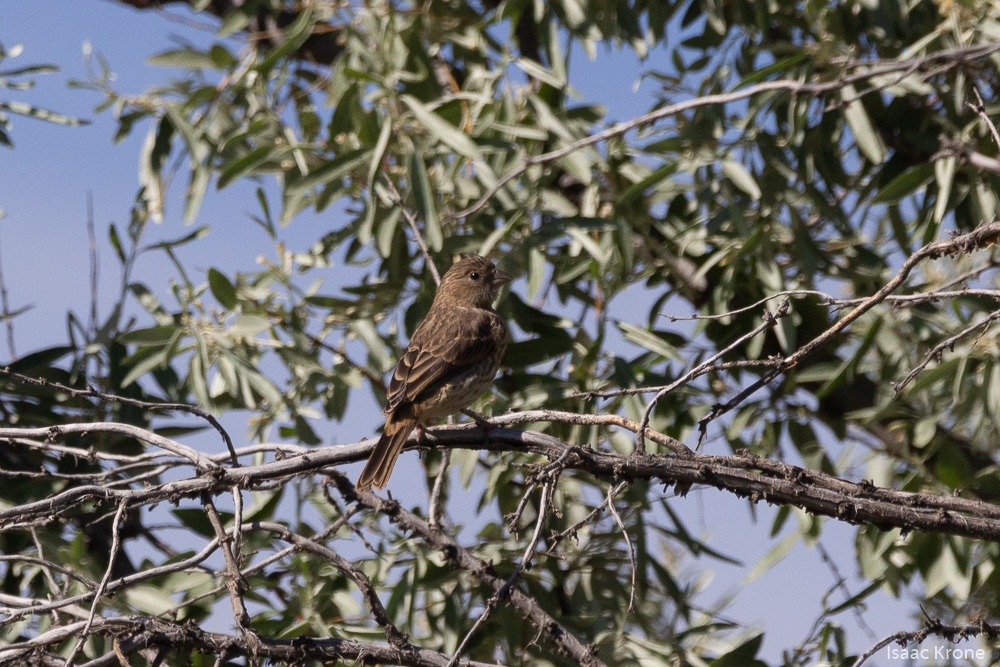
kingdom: Animalia
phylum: Chordata
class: Aves
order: Passeriformes
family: Fringillidae
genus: Haemorhous
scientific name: Haemorhous mexicanus
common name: House finch
